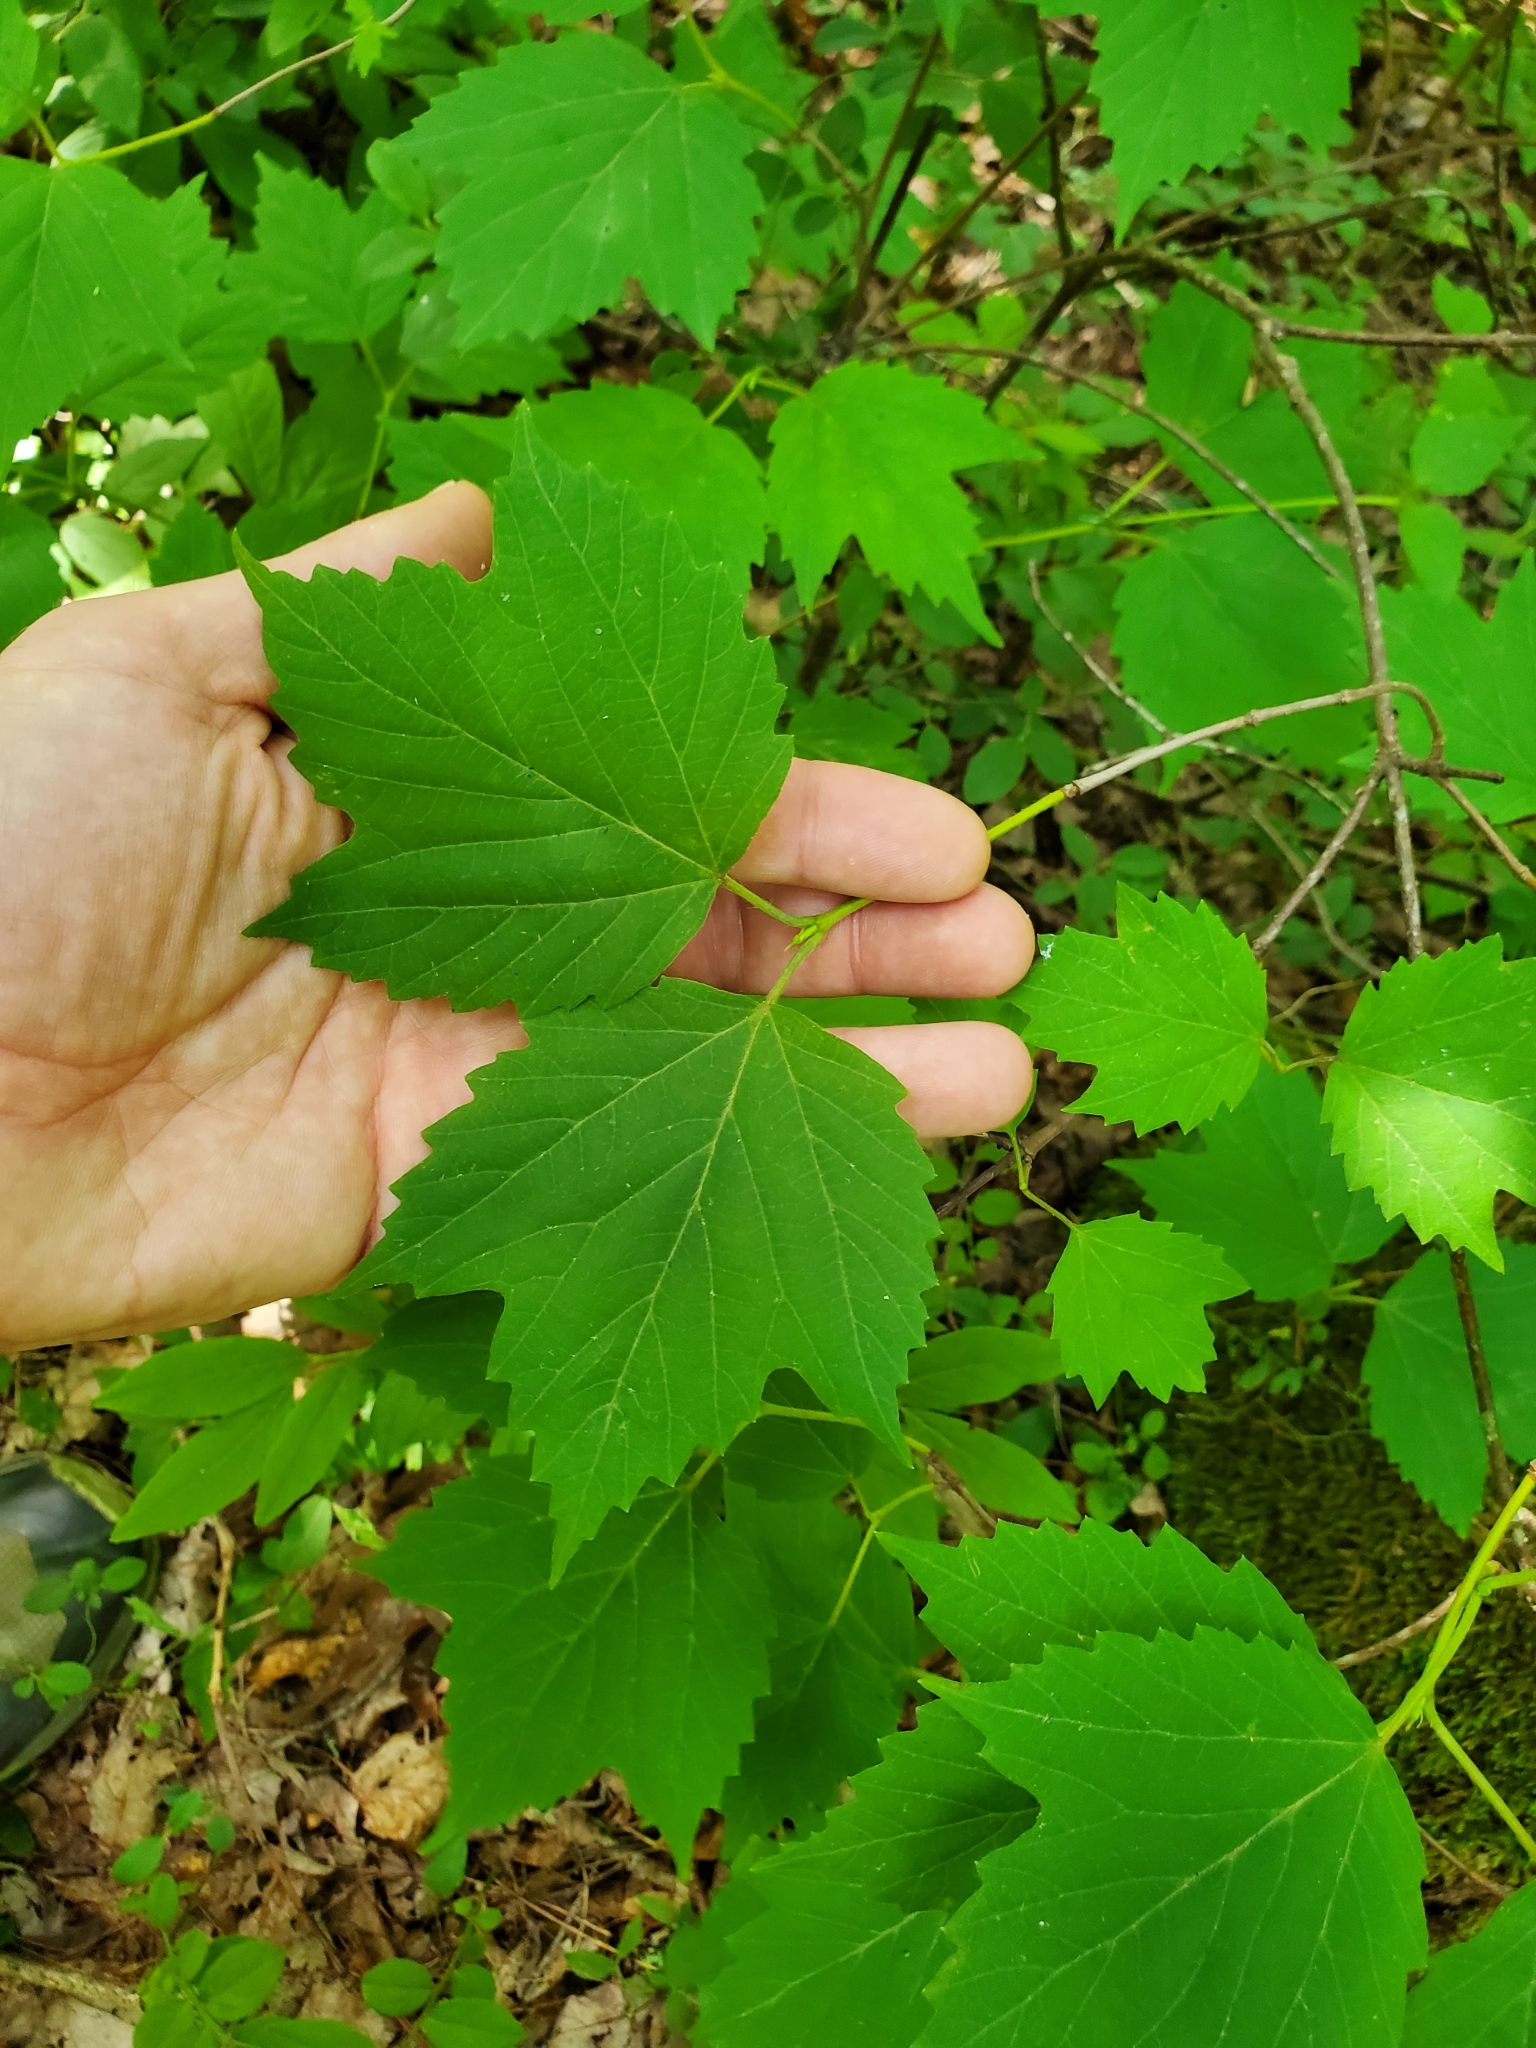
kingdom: Plantae
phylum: Tracheophyta
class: Magnoliopsida
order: Dipsacales
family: Viburnaceae
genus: Viburnum
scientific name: Viburnum acerifolium
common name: Dockmackie
